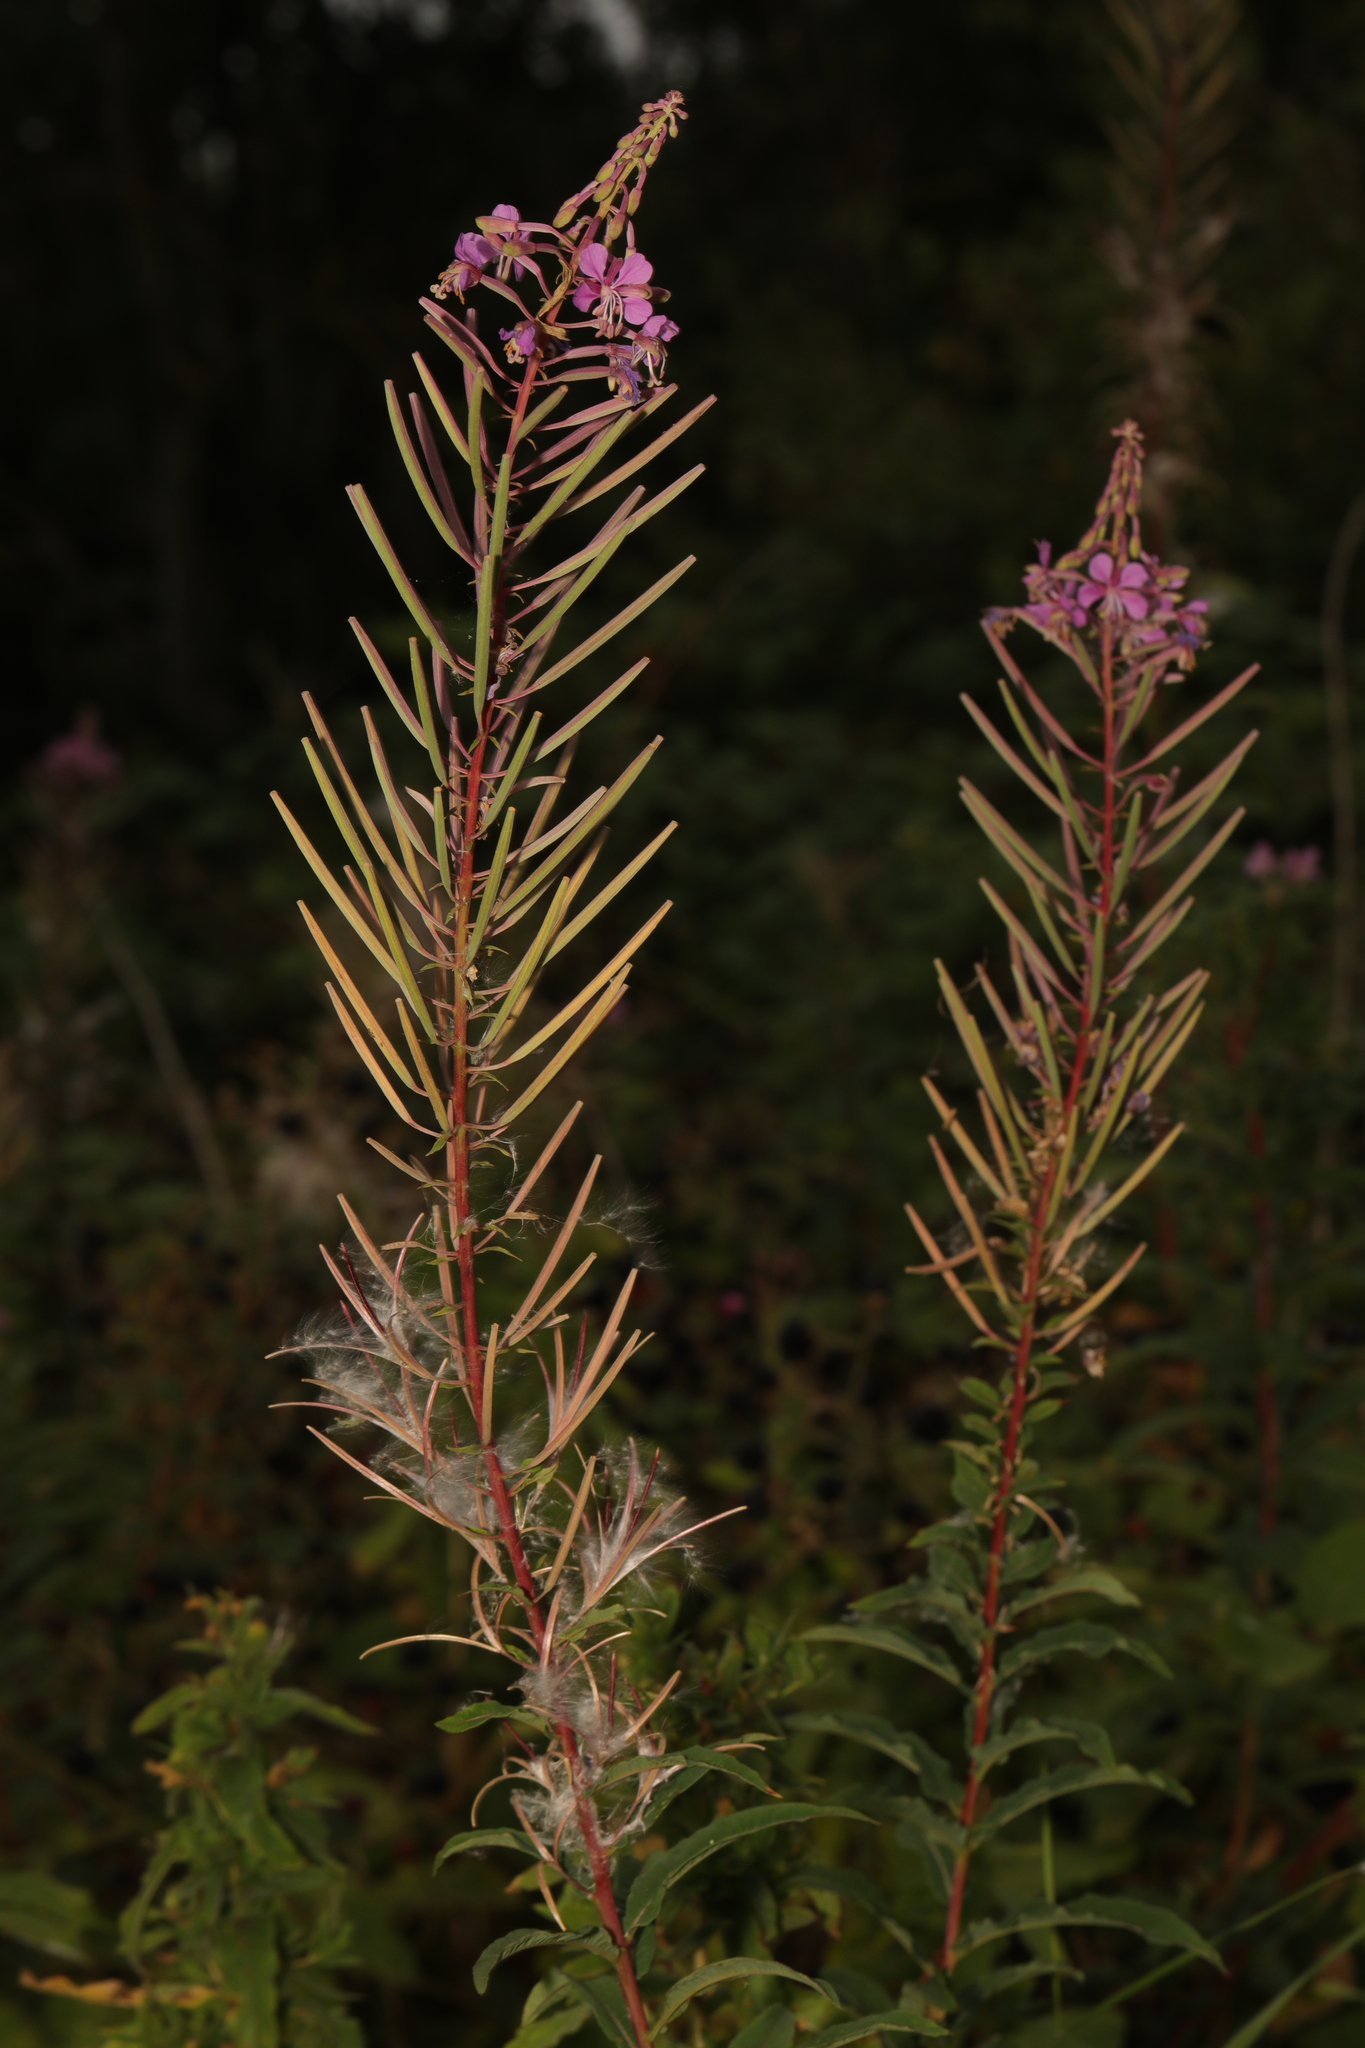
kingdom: Plantae
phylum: Tracheophyta
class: Magnoliopsida
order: Myrtales
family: Onagraceae
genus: Chamaenerion
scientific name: Chamaenerion angustifolium
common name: Fireweed
